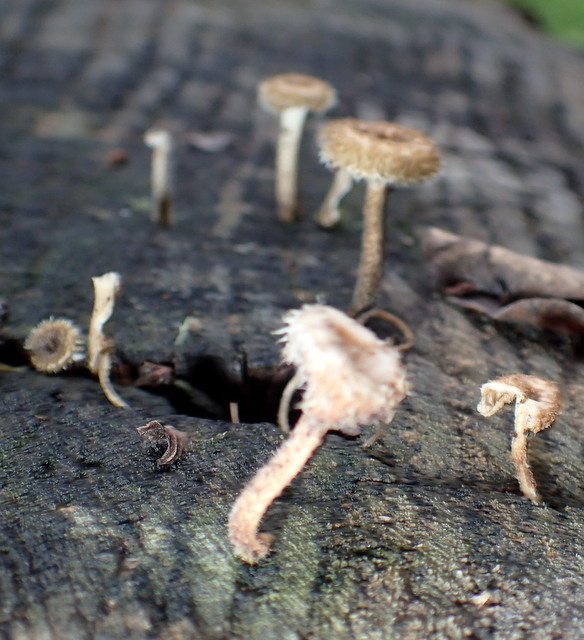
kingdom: Fungi
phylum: Basidiomycota
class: Agaricomycetes
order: Polyporales
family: Polyporaceae
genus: Lentinus
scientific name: Lentinus crinitus
